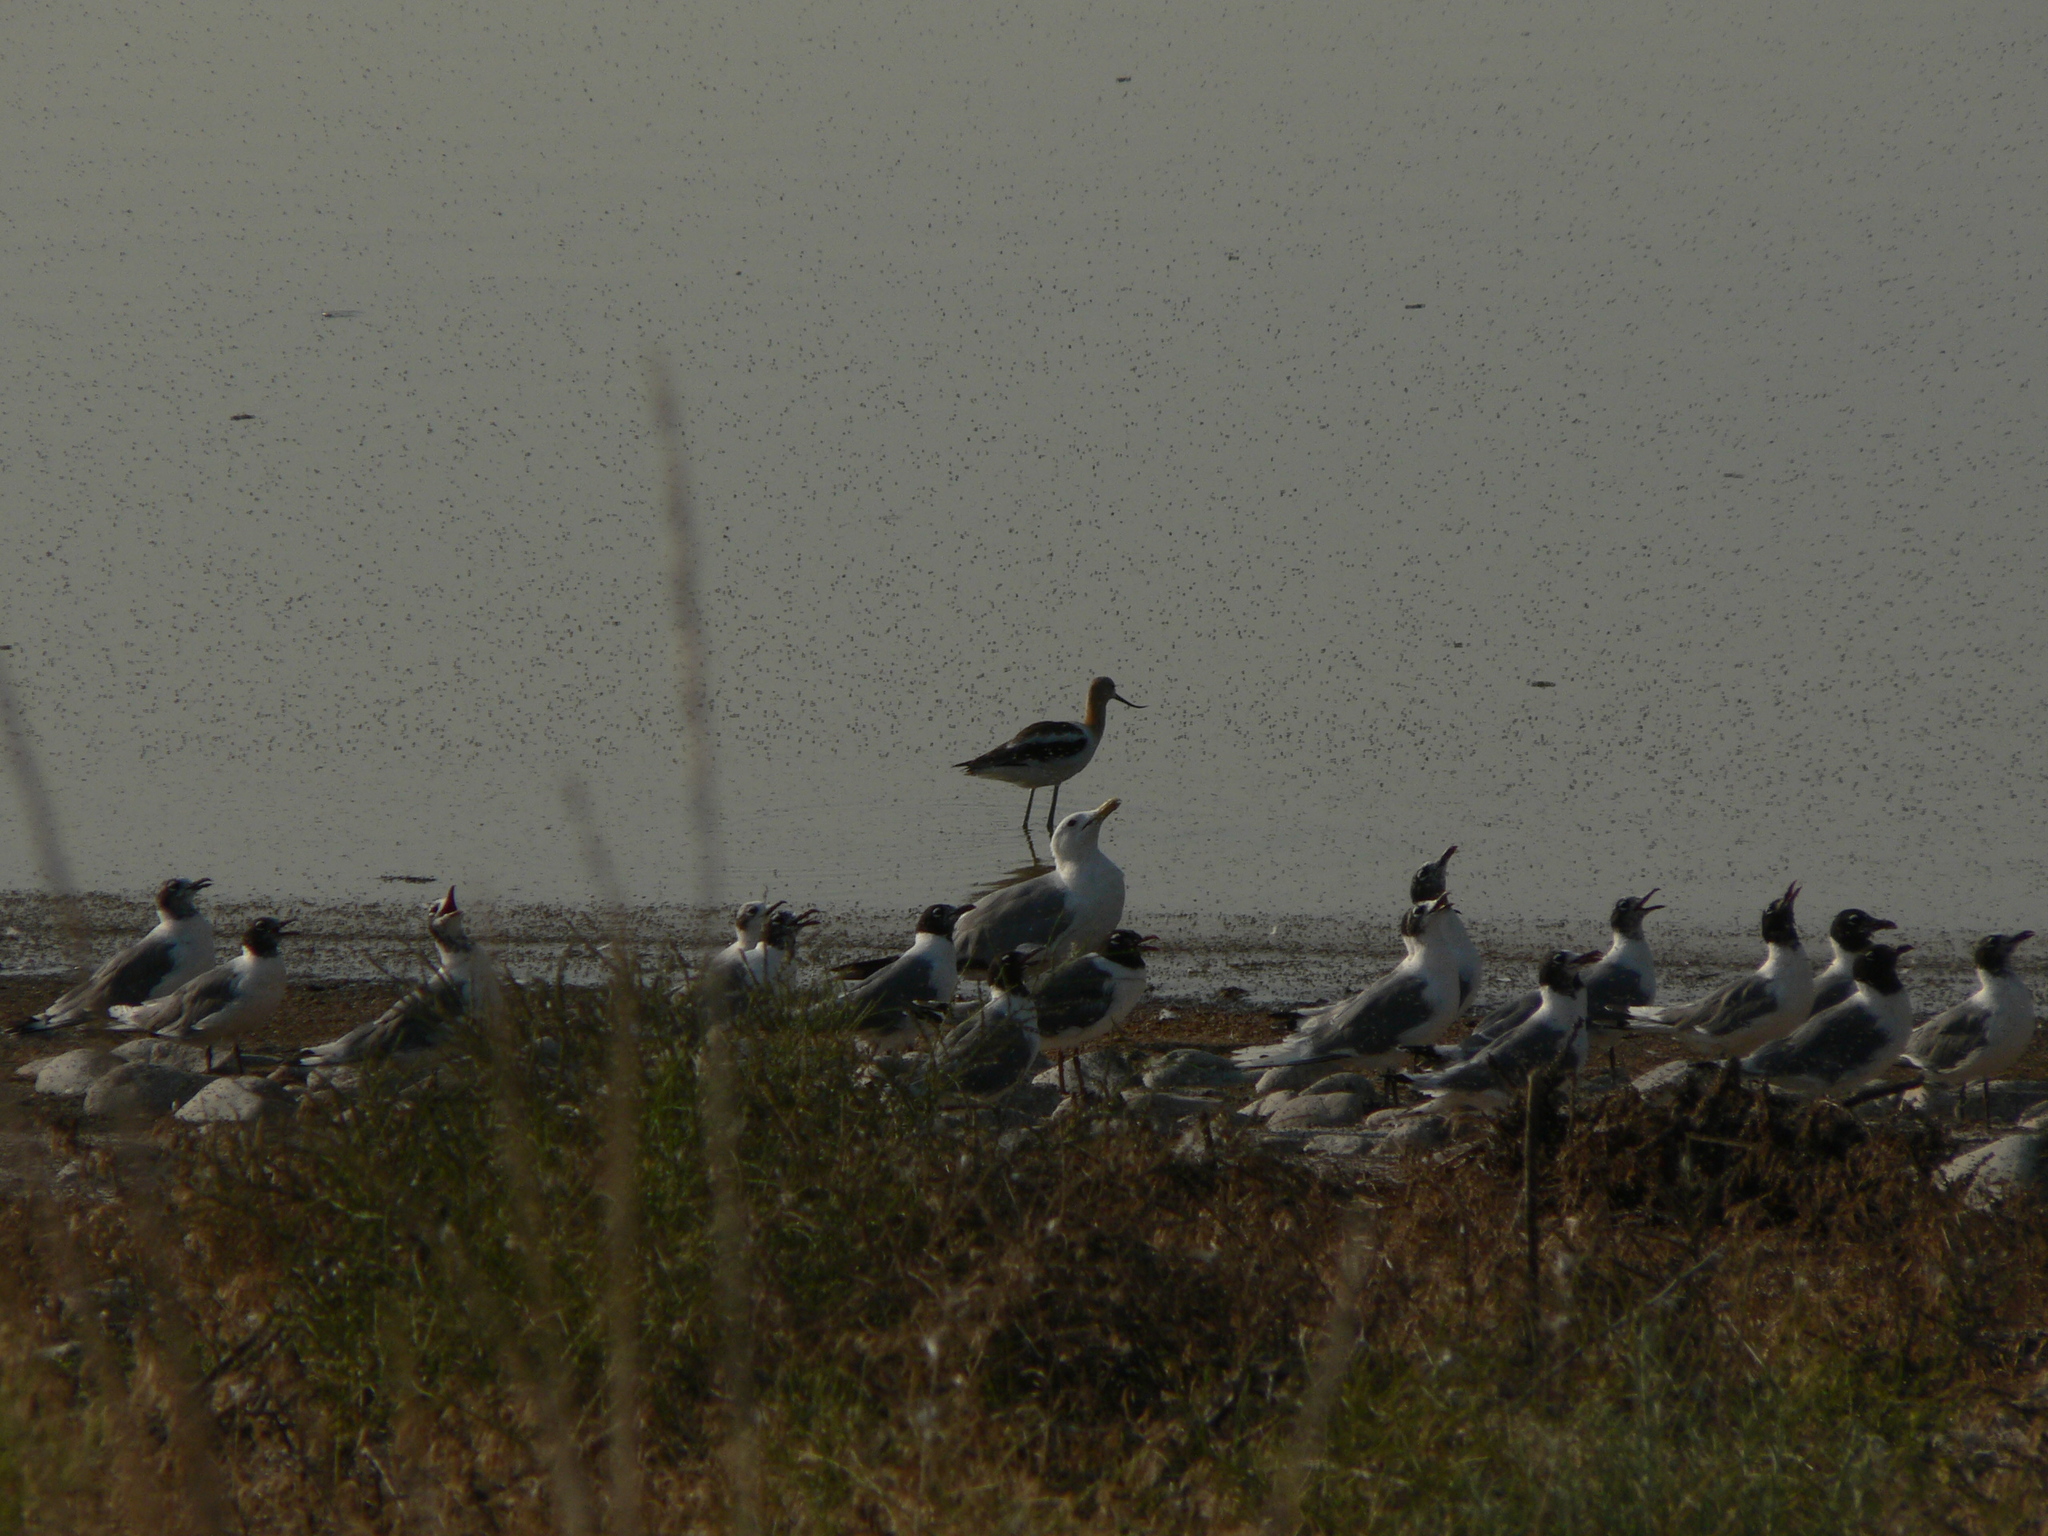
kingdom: Animalia
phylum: Chordata
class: Aves
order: Charadriiformes
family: Recurvirostridae
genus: Recurvirostra
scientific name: Recurvirostra americana
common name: American avocet
